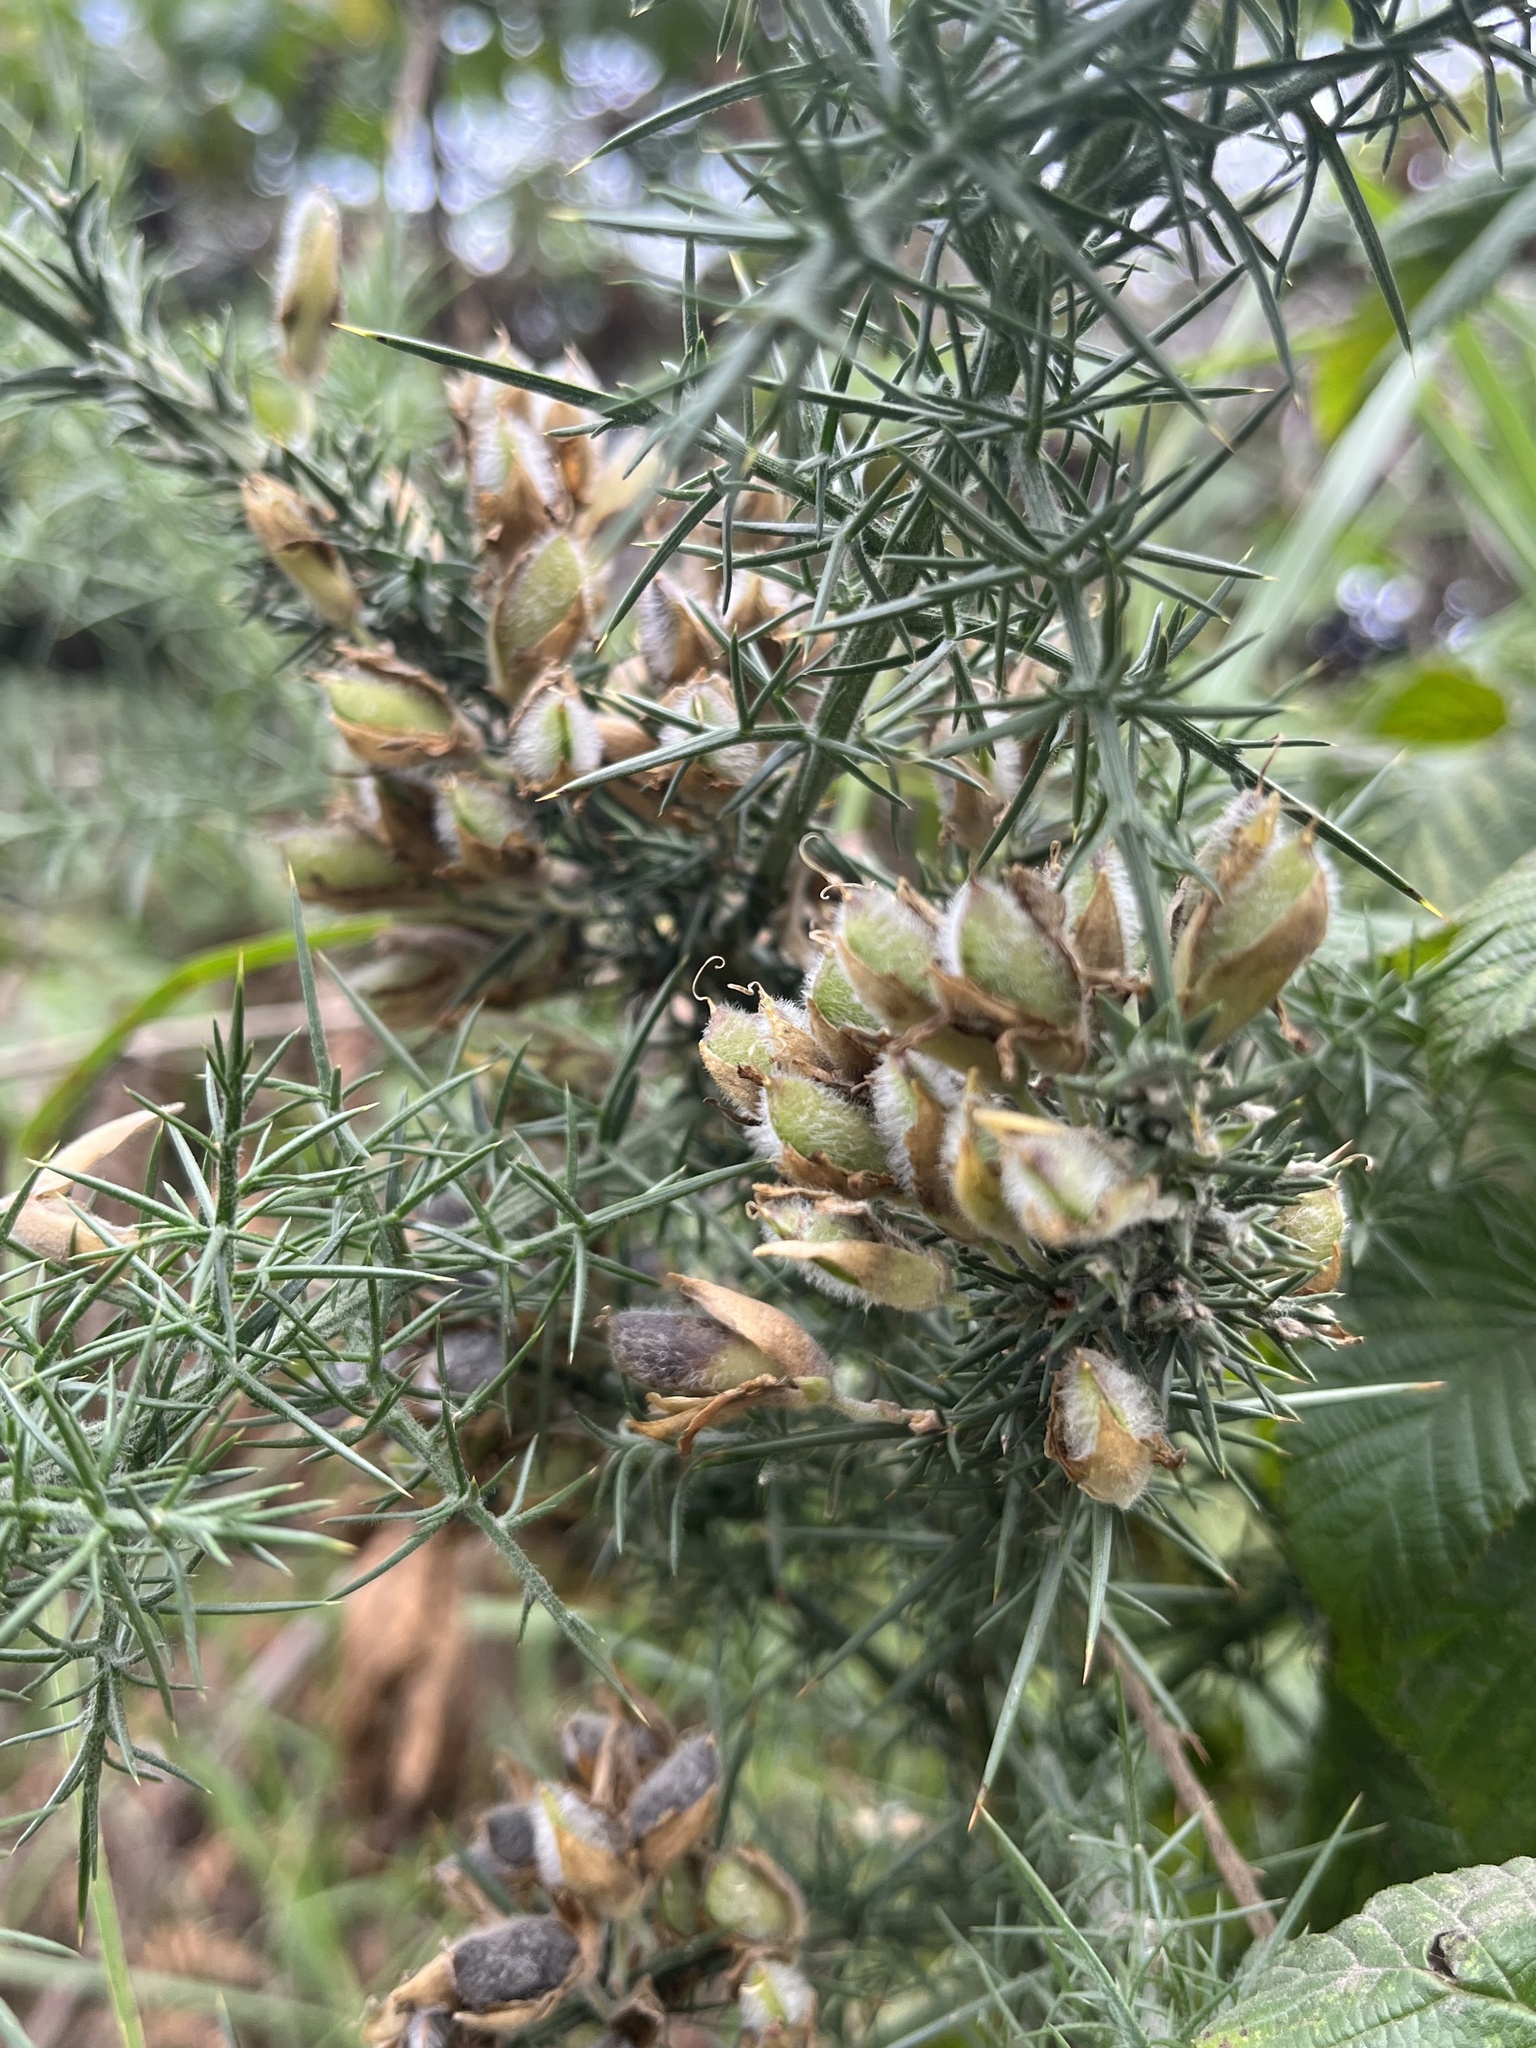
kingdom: Plantae
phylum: Tracheophyta
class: Magnoliopsida
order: Fabales
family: Fabaceae
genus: Ulex
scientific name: Ulex europaeus
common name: Common gorse
